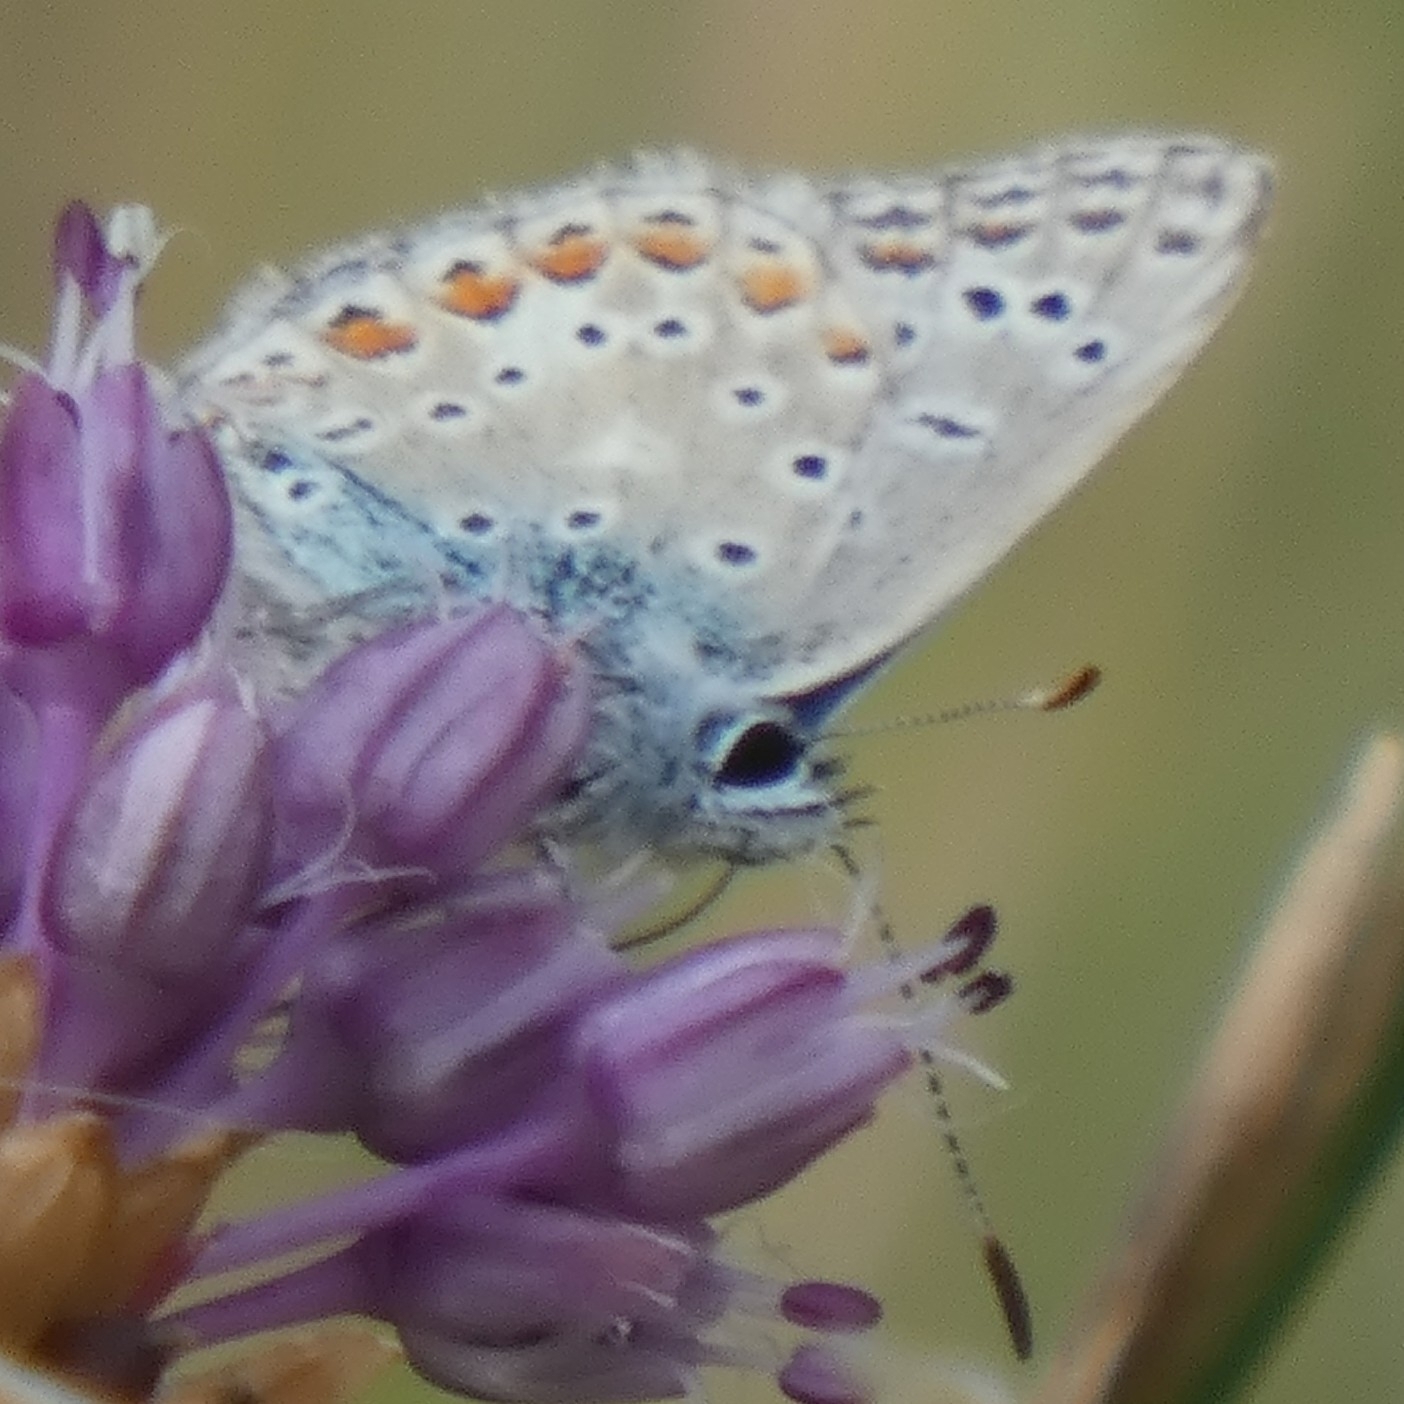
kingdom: Animalia
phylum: Arthropoda
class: Insecta
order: Lepidoptera
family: Lycaenidae
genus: Polyommatus
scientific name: Polyommatus icarus
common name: Common blue
